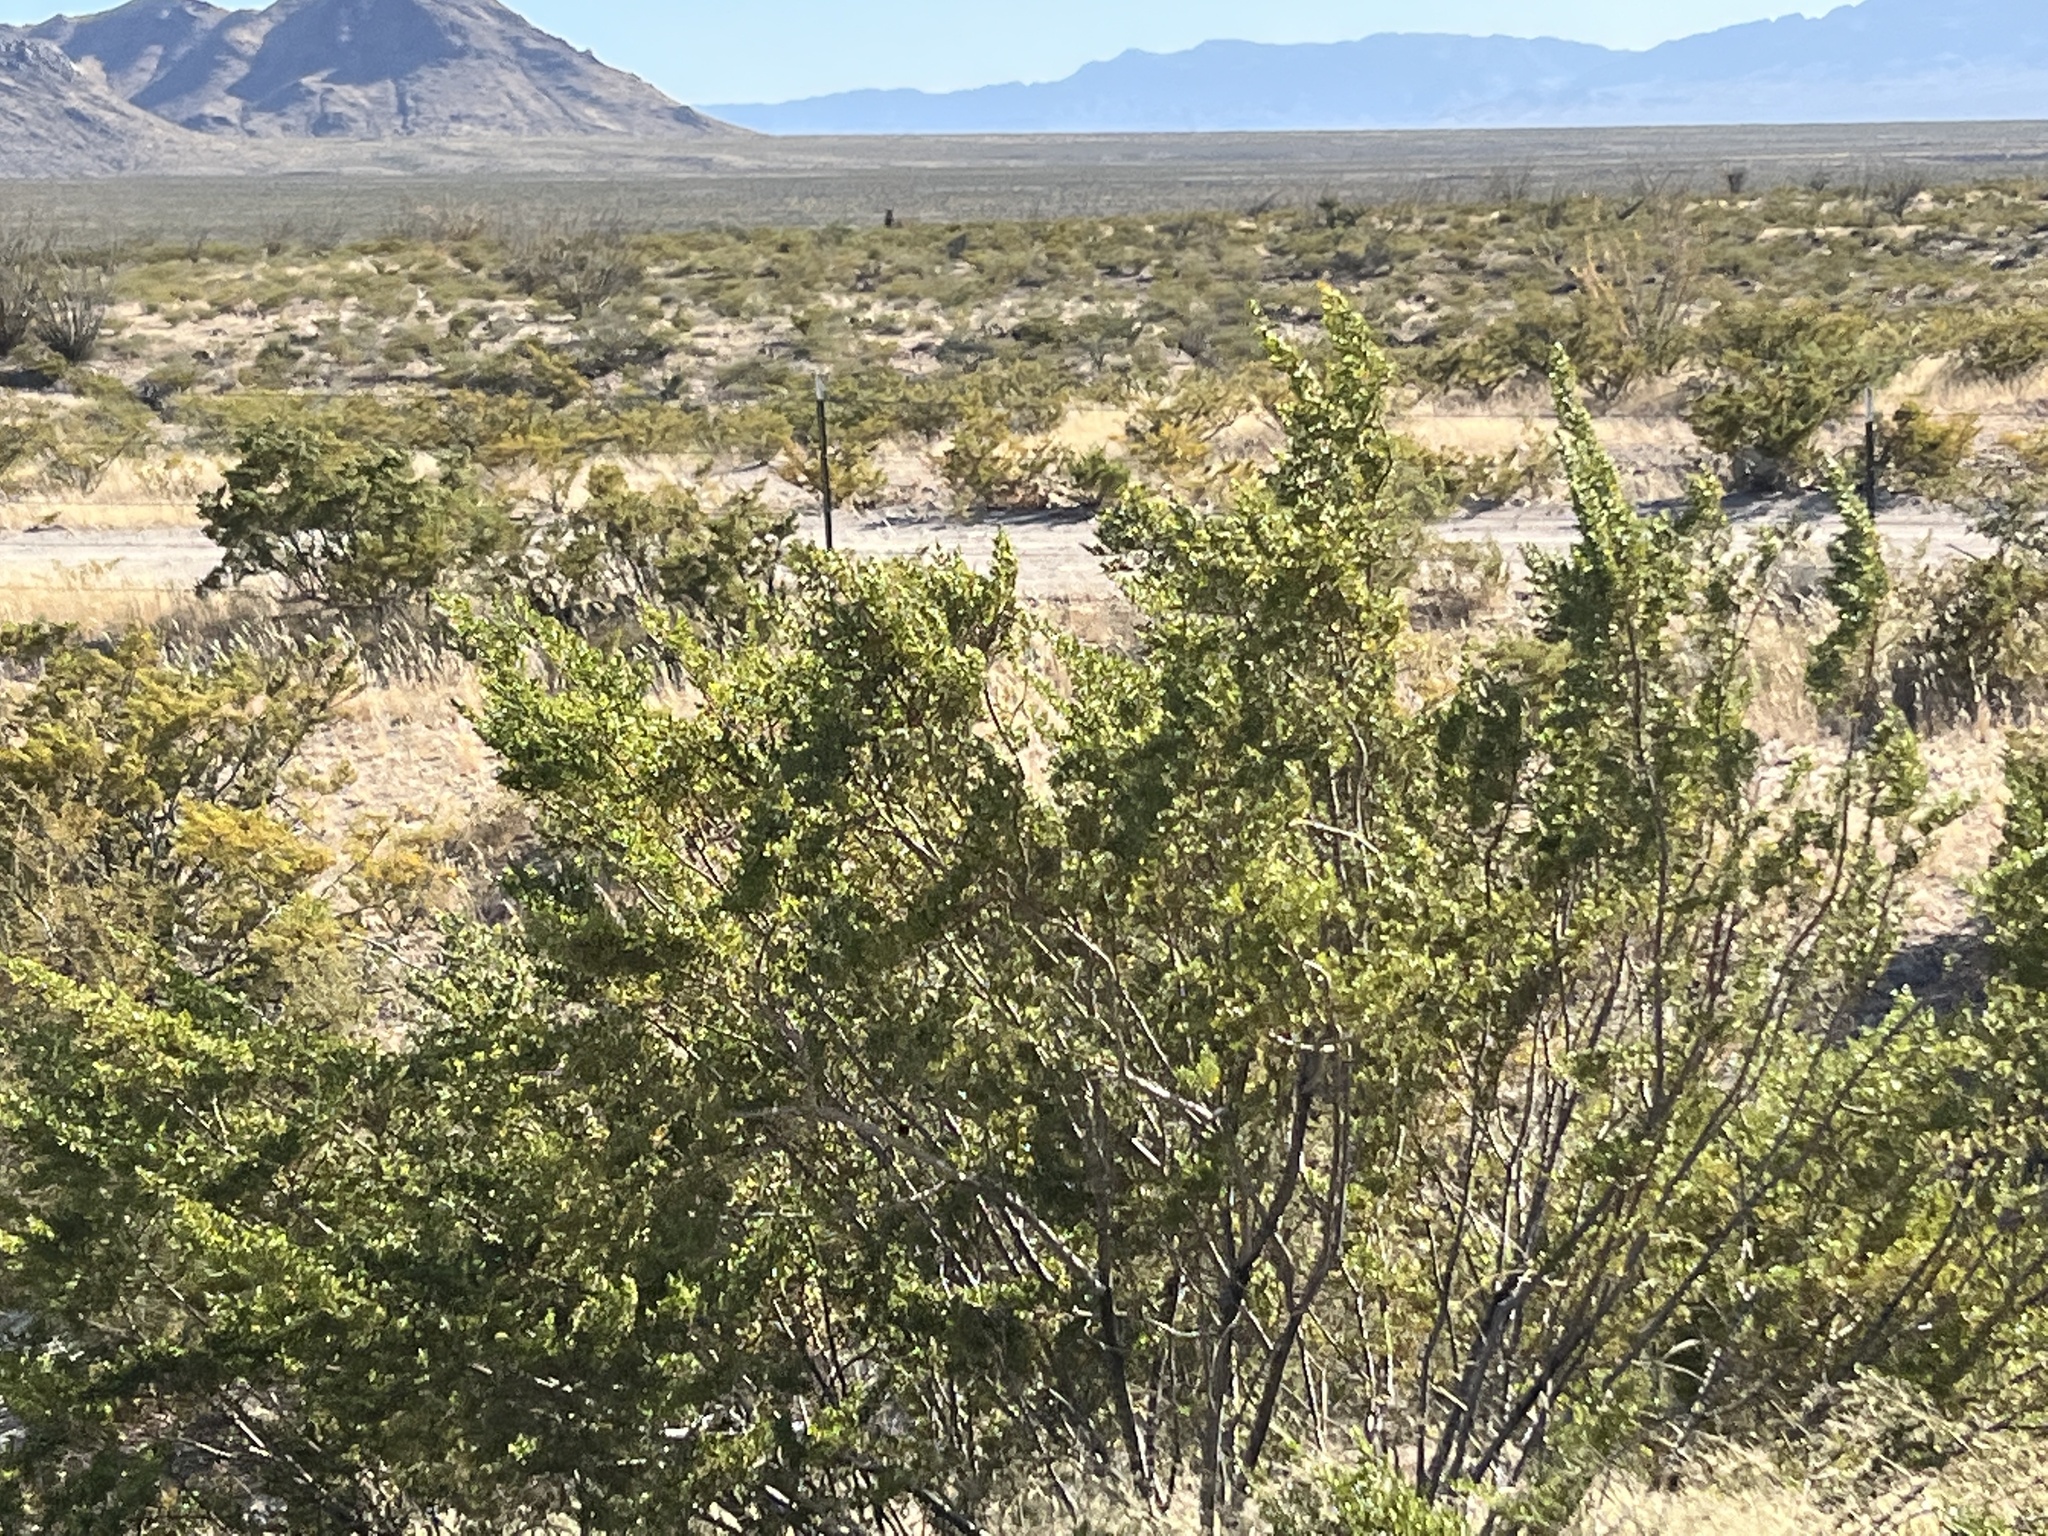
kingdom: Plantae
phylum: Tracheophyta
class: Magnoliopsida
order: Zygophyllales
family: Zygophyllaceae
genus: Larrea
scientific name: Larrea tridentata
